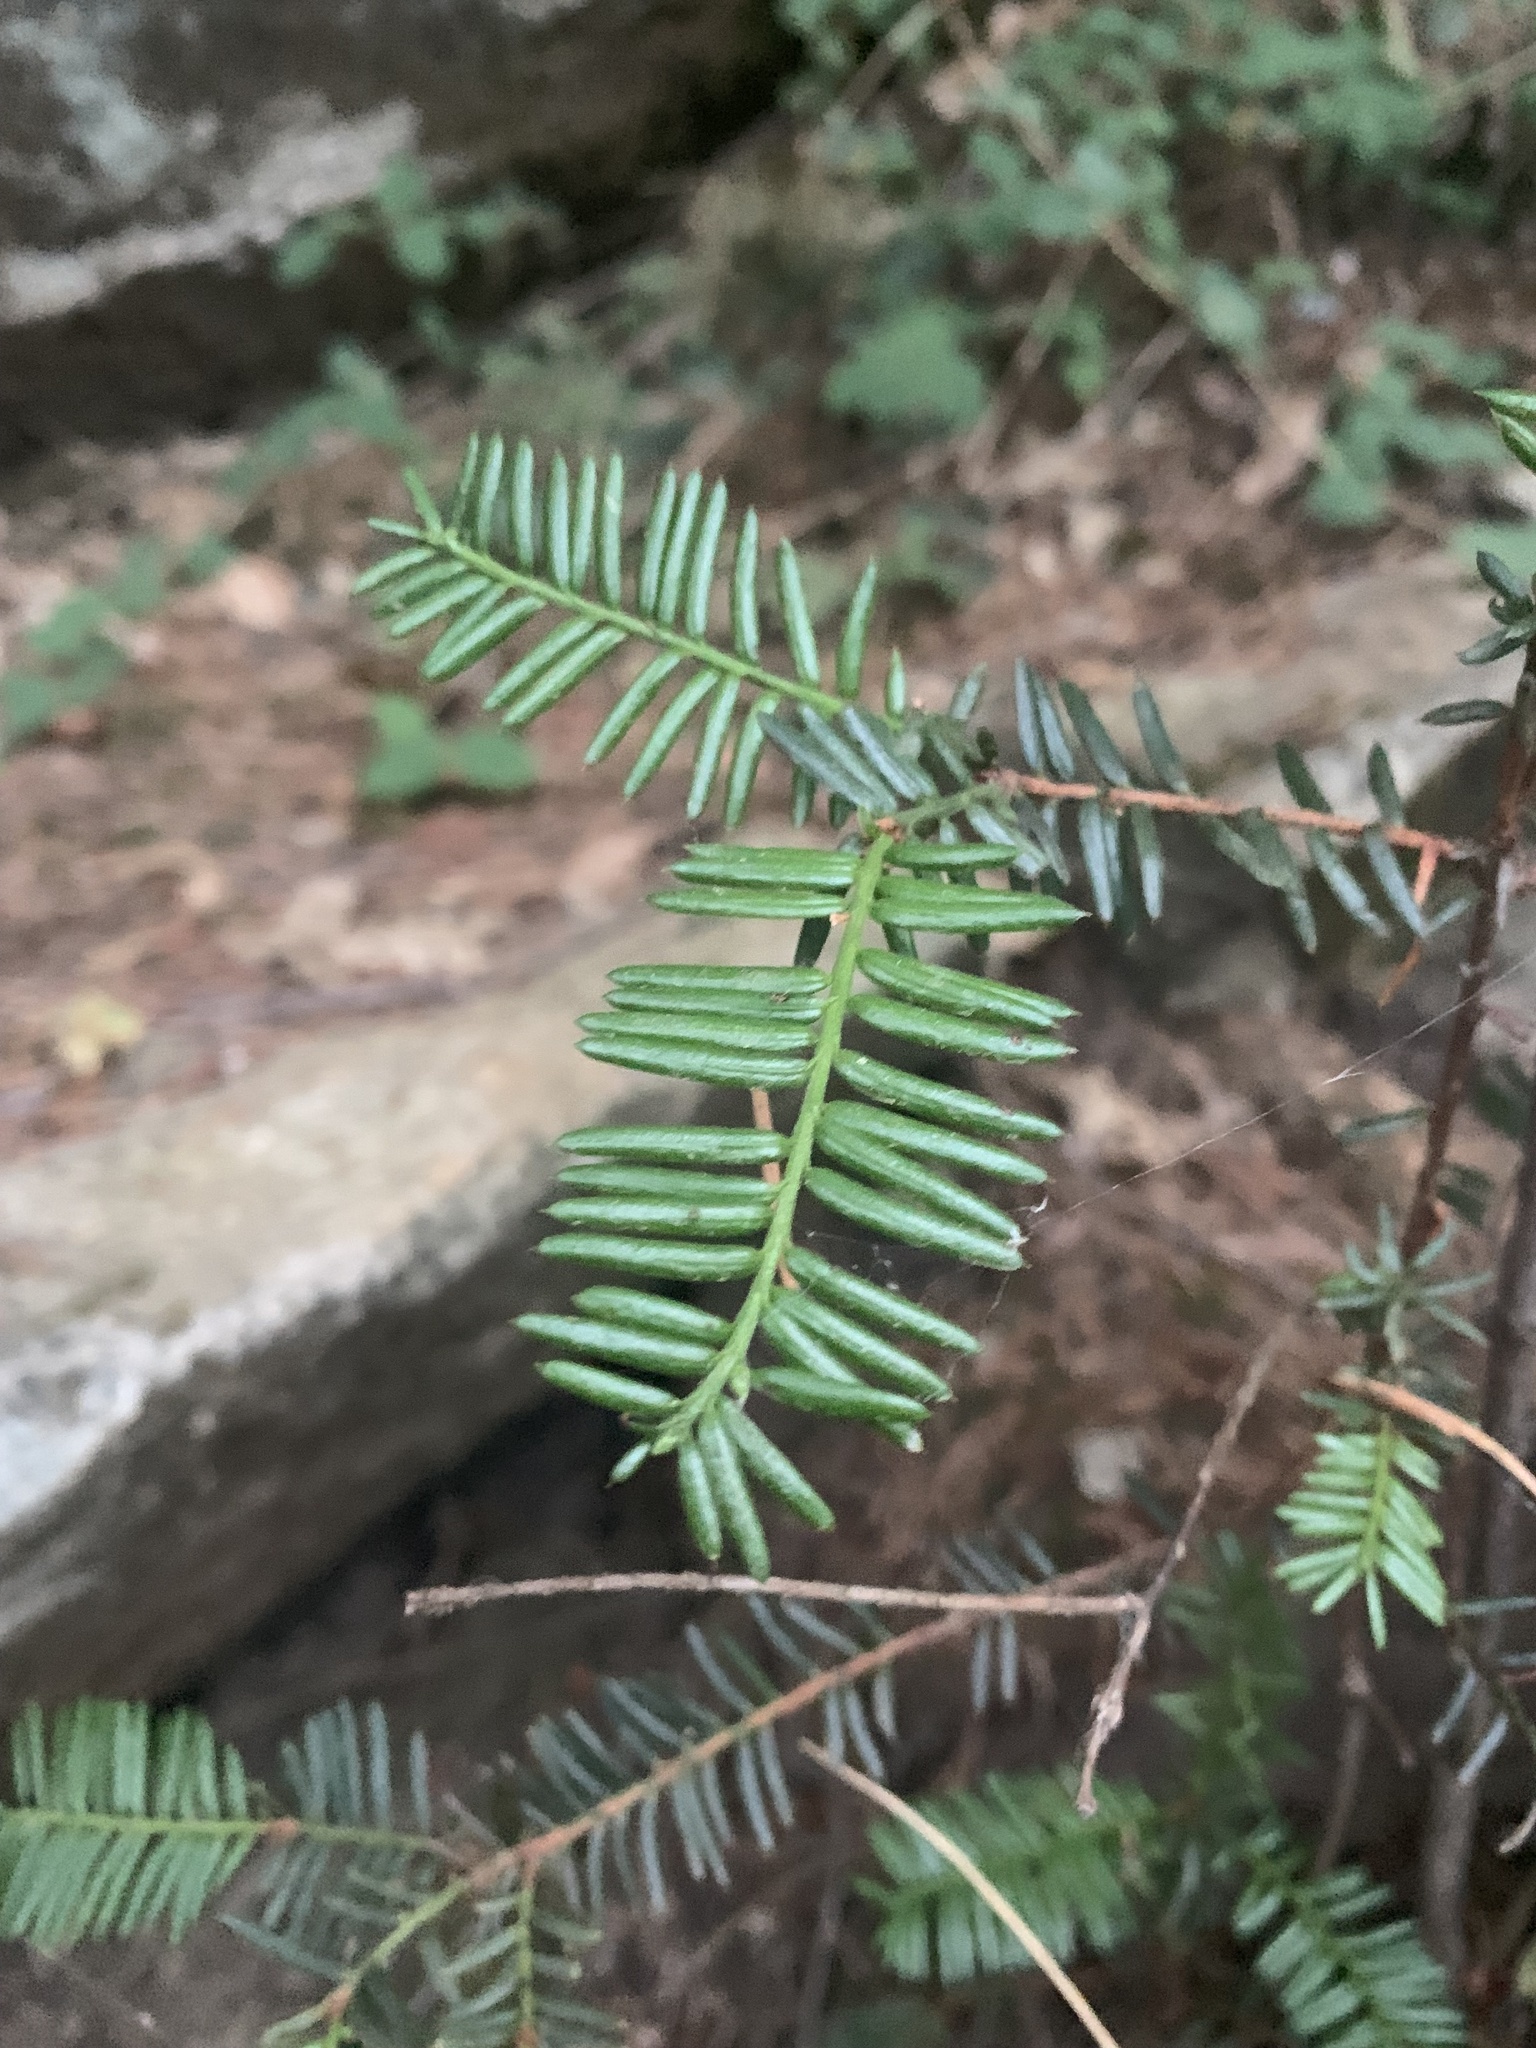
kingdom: Plantae
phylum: Tracheophyta
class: Pinopsida
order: Pinales
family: Taxaceae
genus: Taxus
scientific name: Taxus brevifolia
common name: Pacific yew
